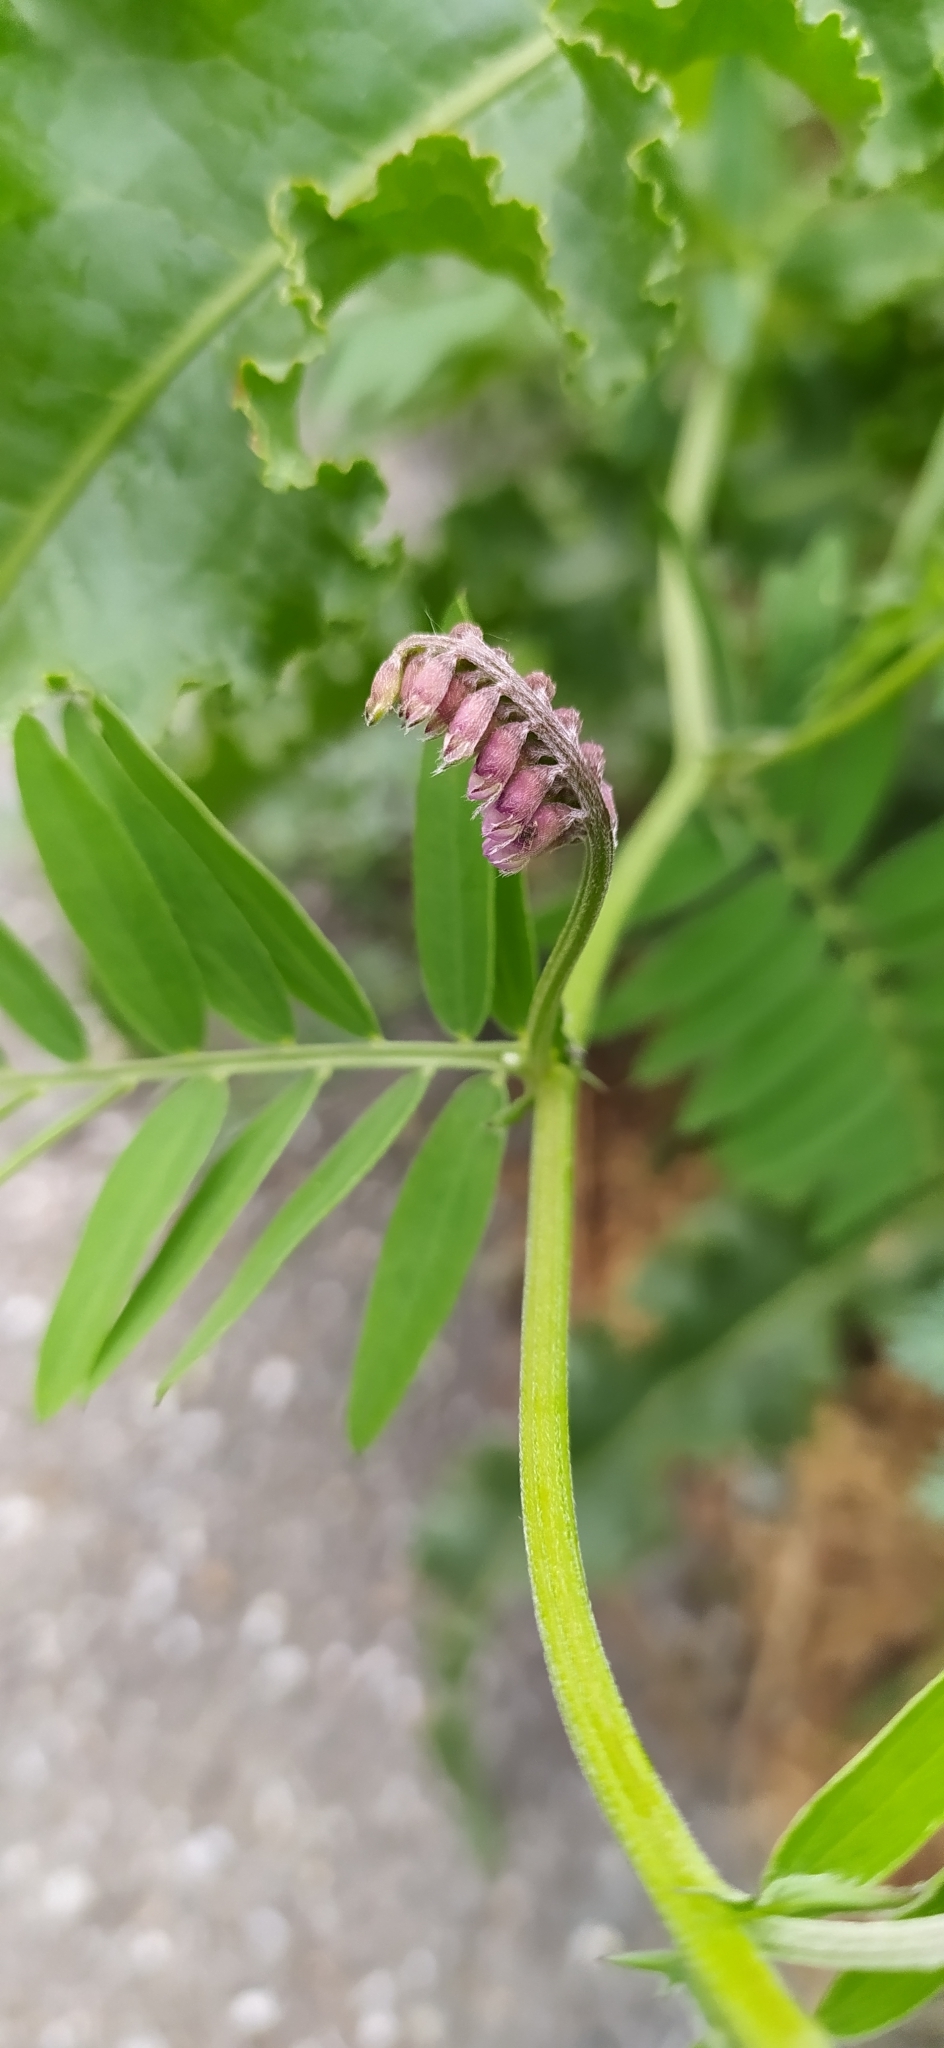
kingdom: Plantae
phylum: Tracheophyta
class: Magnoliopsida
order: Fabales
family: Fabaceae
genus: Vicia
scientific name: Vicia cracca
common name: Bird vetch
